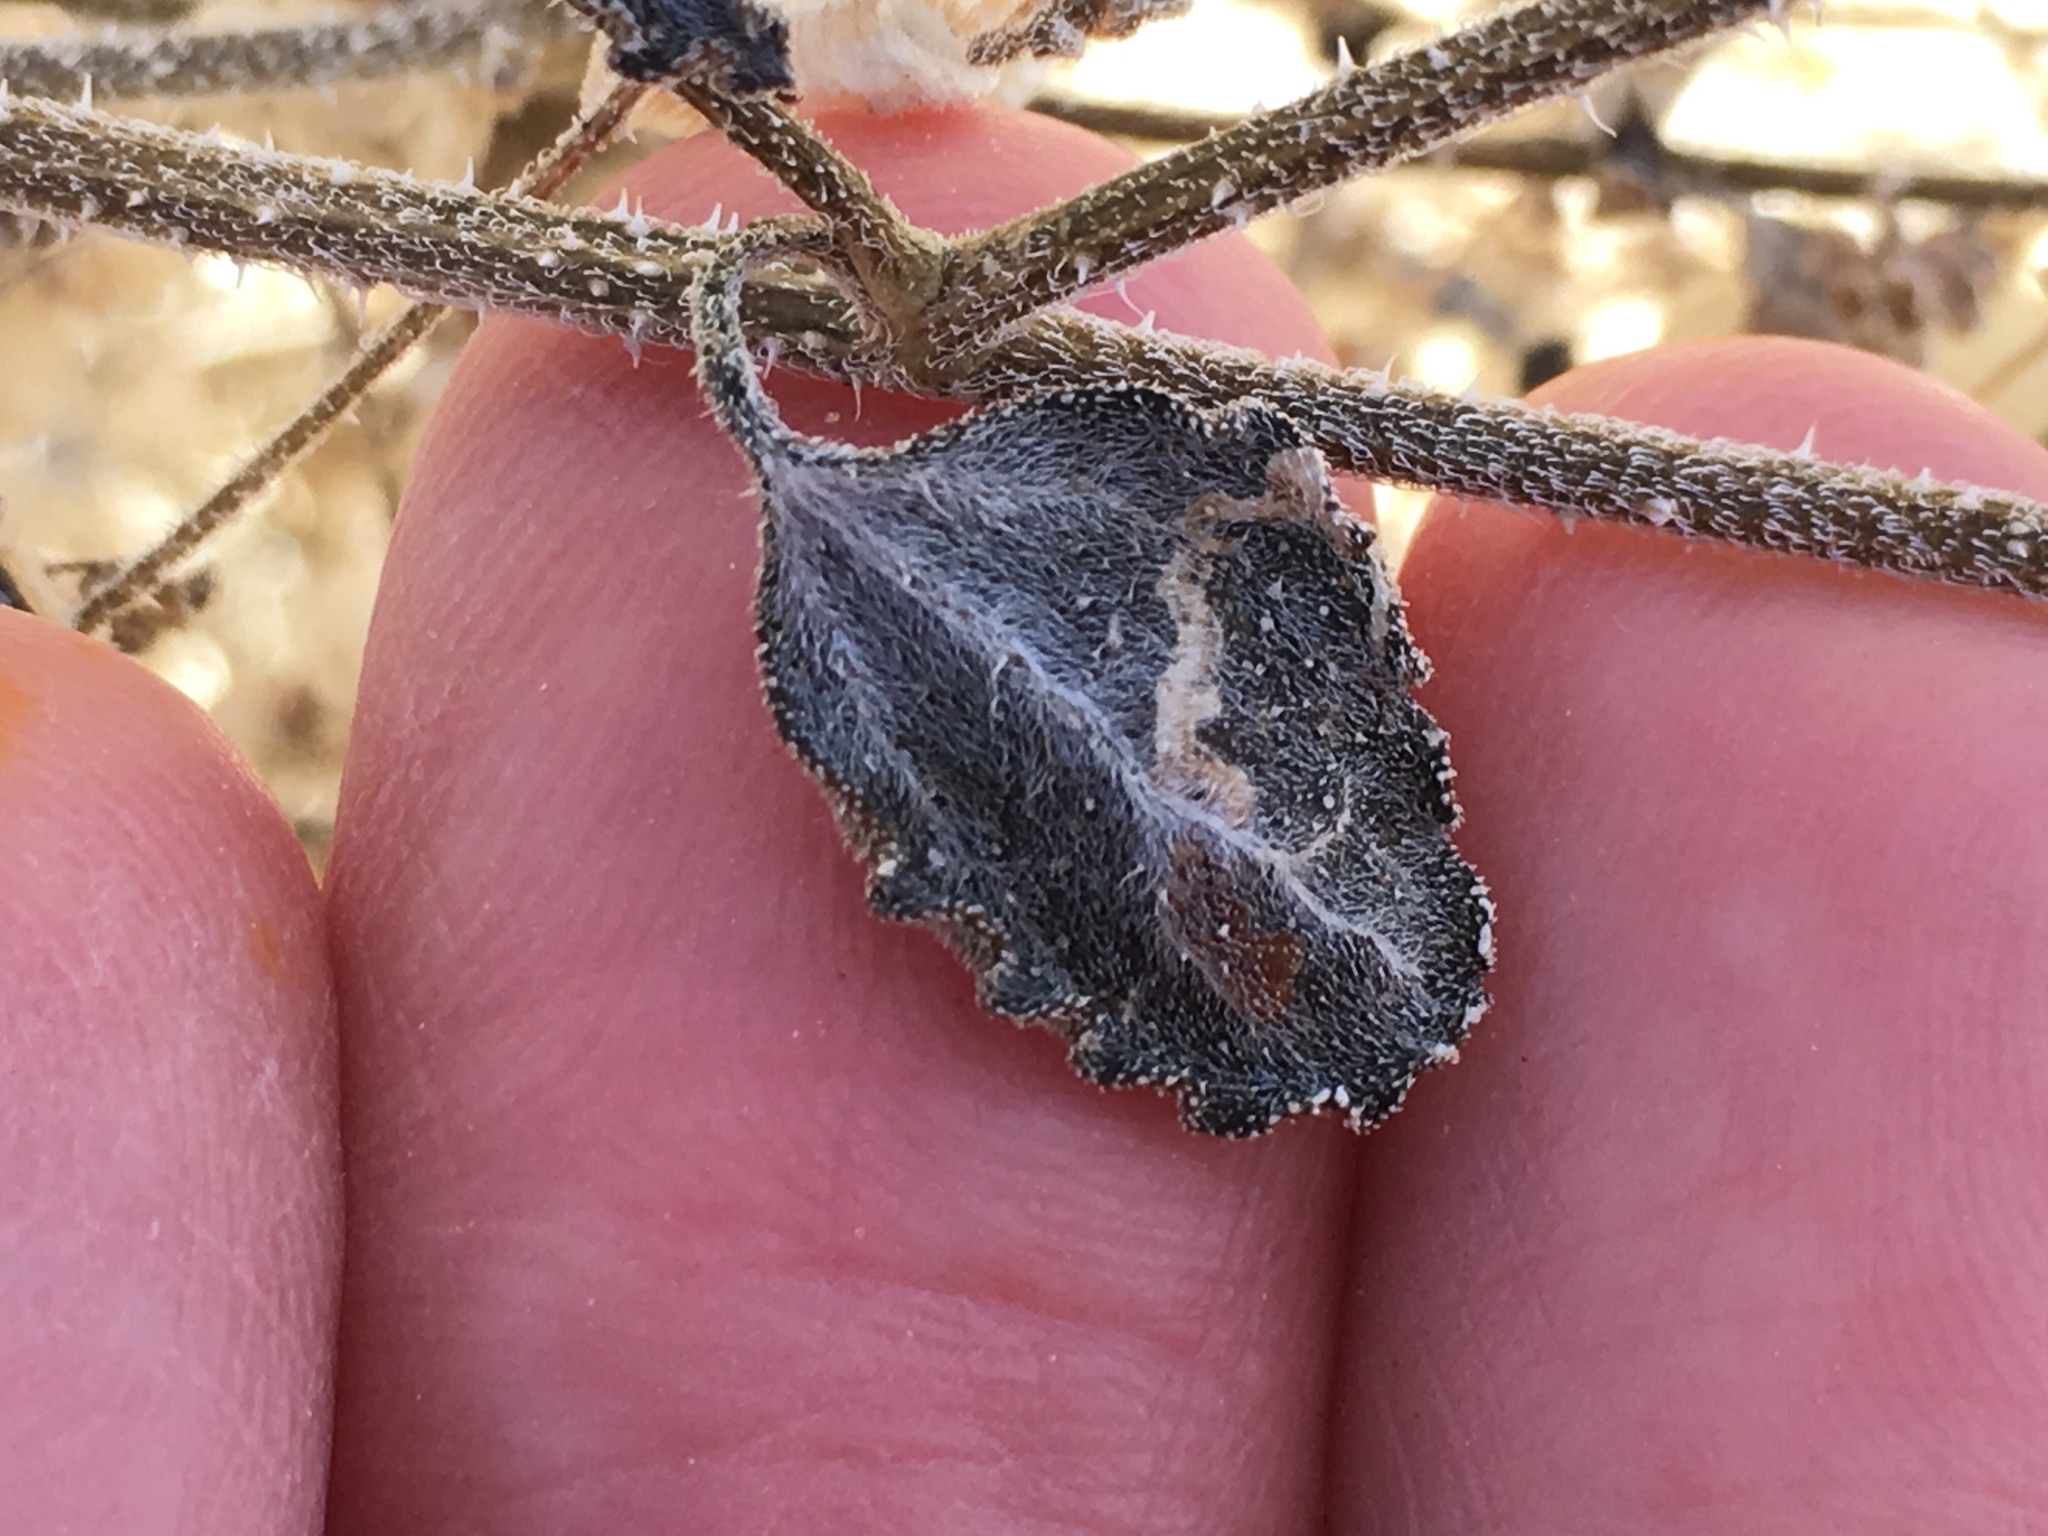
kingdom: Plantae
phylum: Tracheophyta
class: Magnoliopsida
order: Asterales
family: Asteraceae
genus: Dicoria
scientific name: Dicoria canescens
